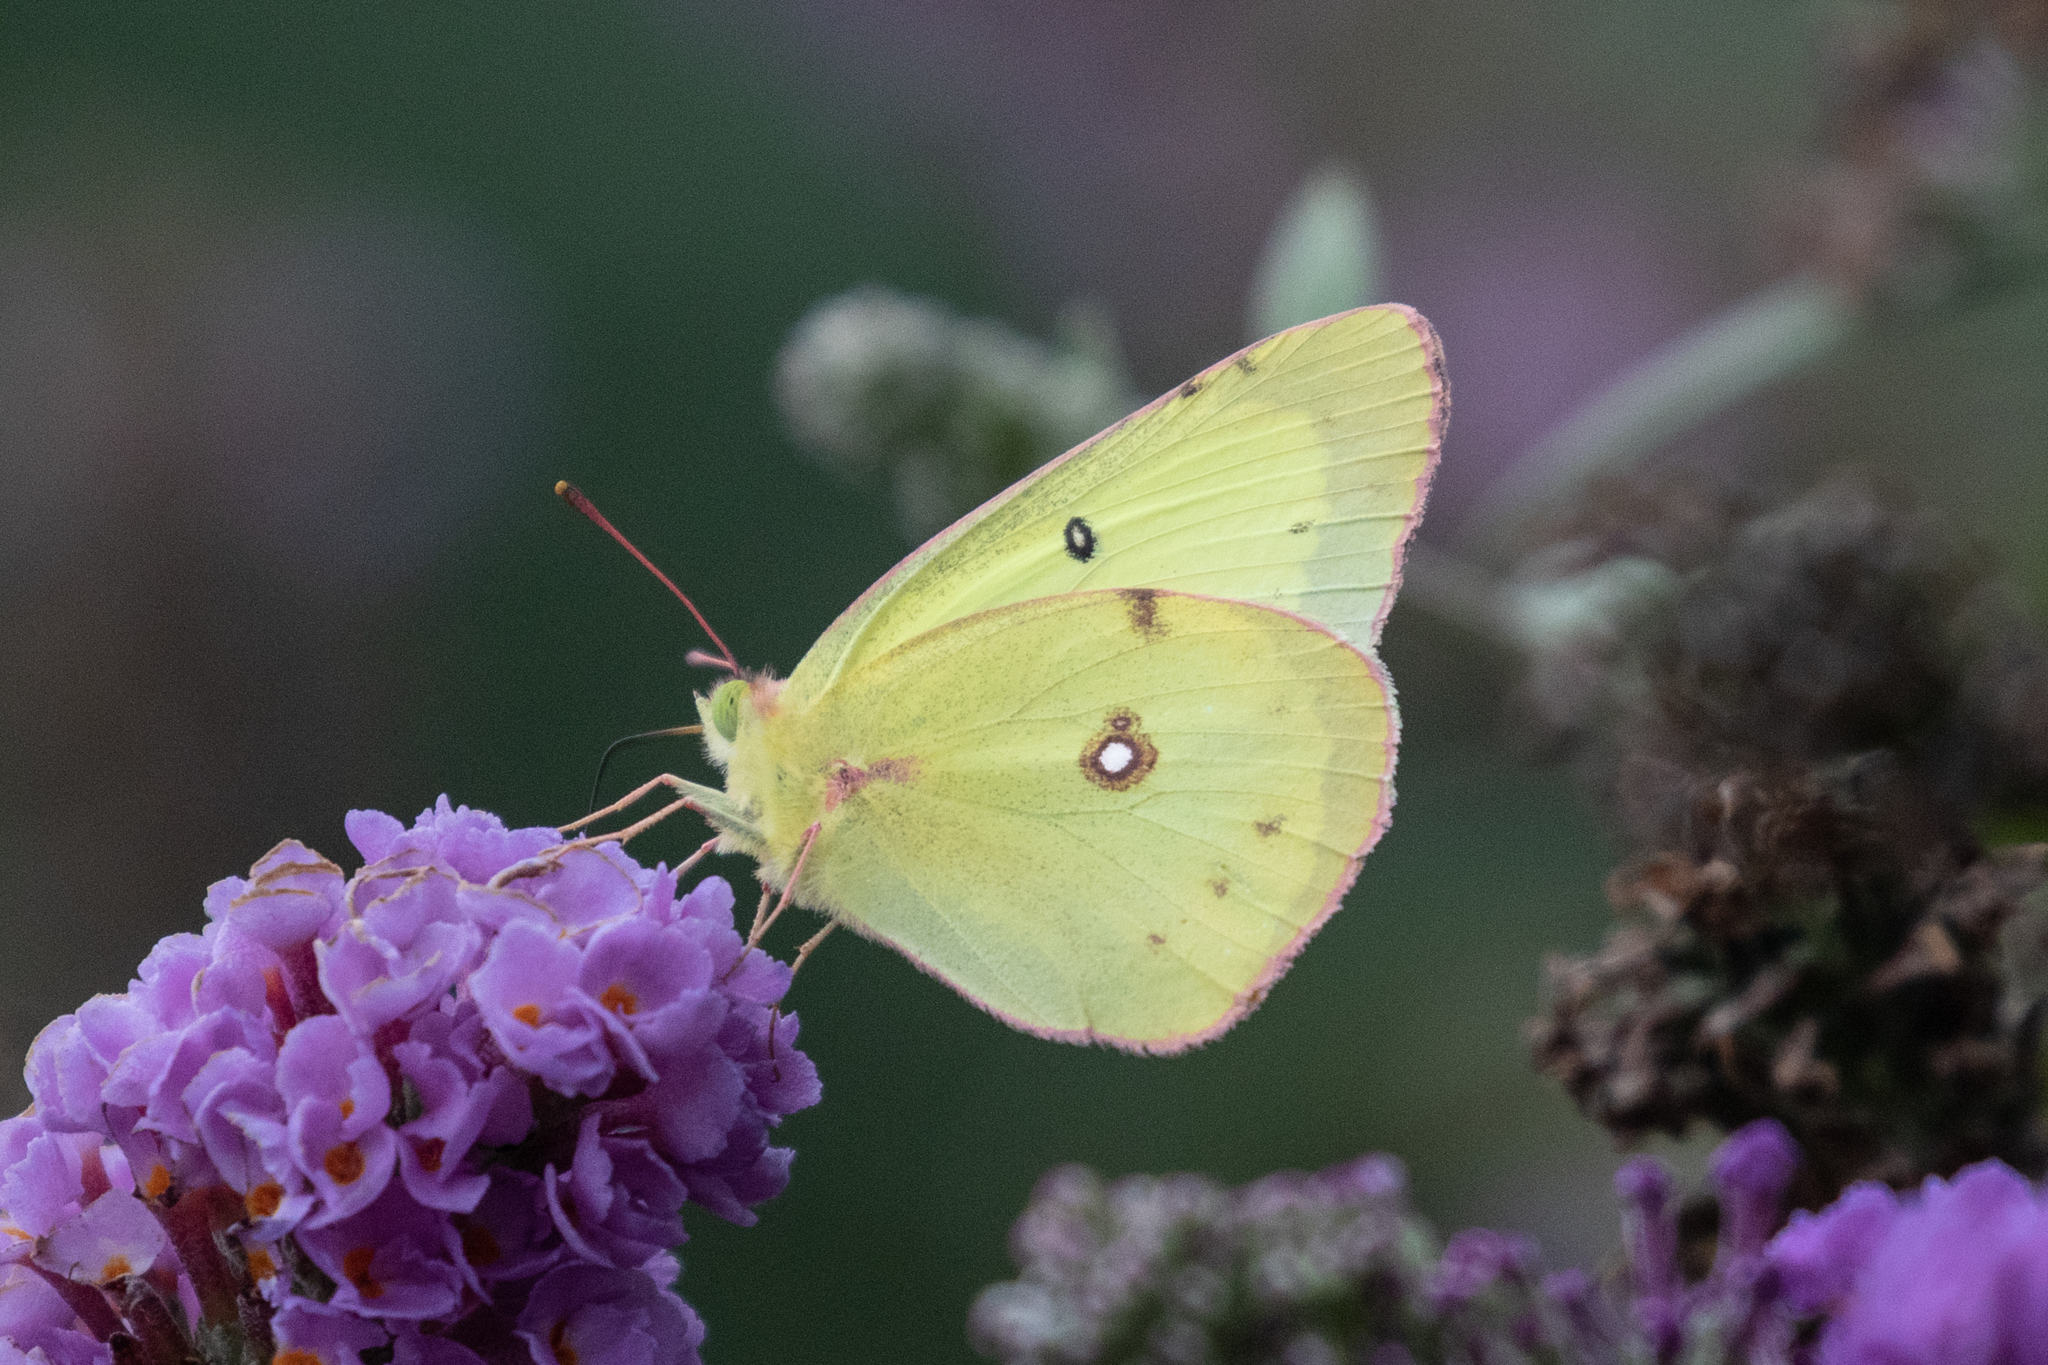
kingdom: Animalia
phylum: Arthropoda
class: Insecta
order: Lepidoptera
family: Pieridae
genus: Colias
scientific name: Colias philodice
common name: Clouded sulphur
